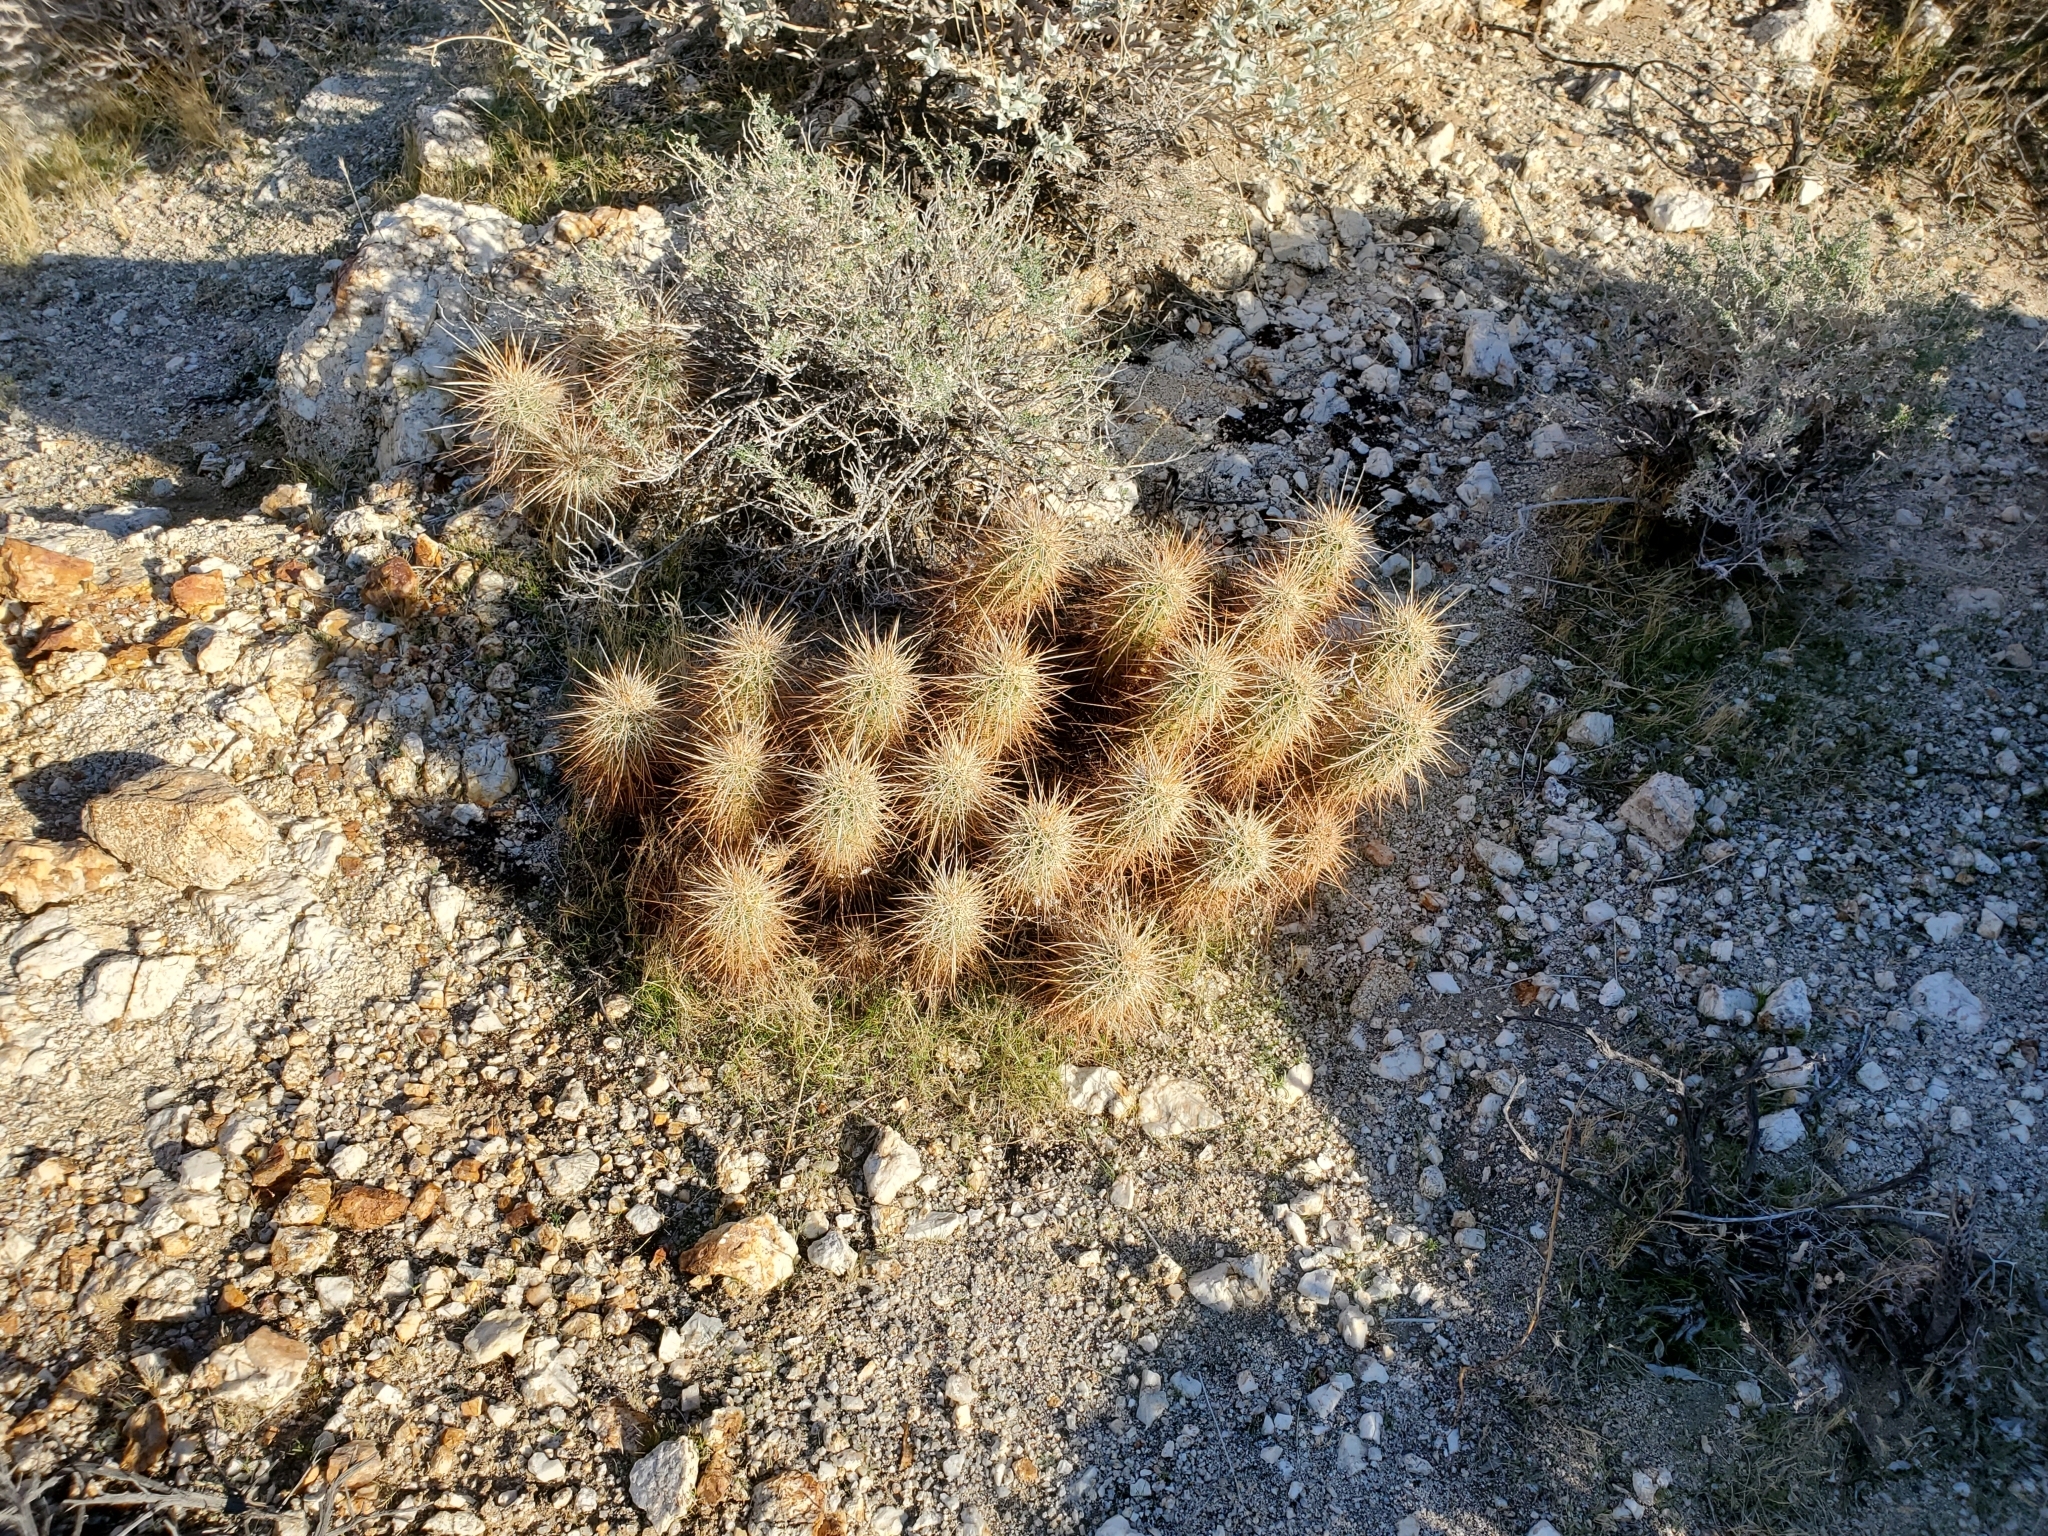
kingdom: Plantae
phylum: Tracheophyta
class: Magnoliopsida
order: Caryophyllales
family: Cactaceae
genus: Echinocereus
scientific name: Echinocereus engelmannii
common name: Engelmann's hedgehog cactus
